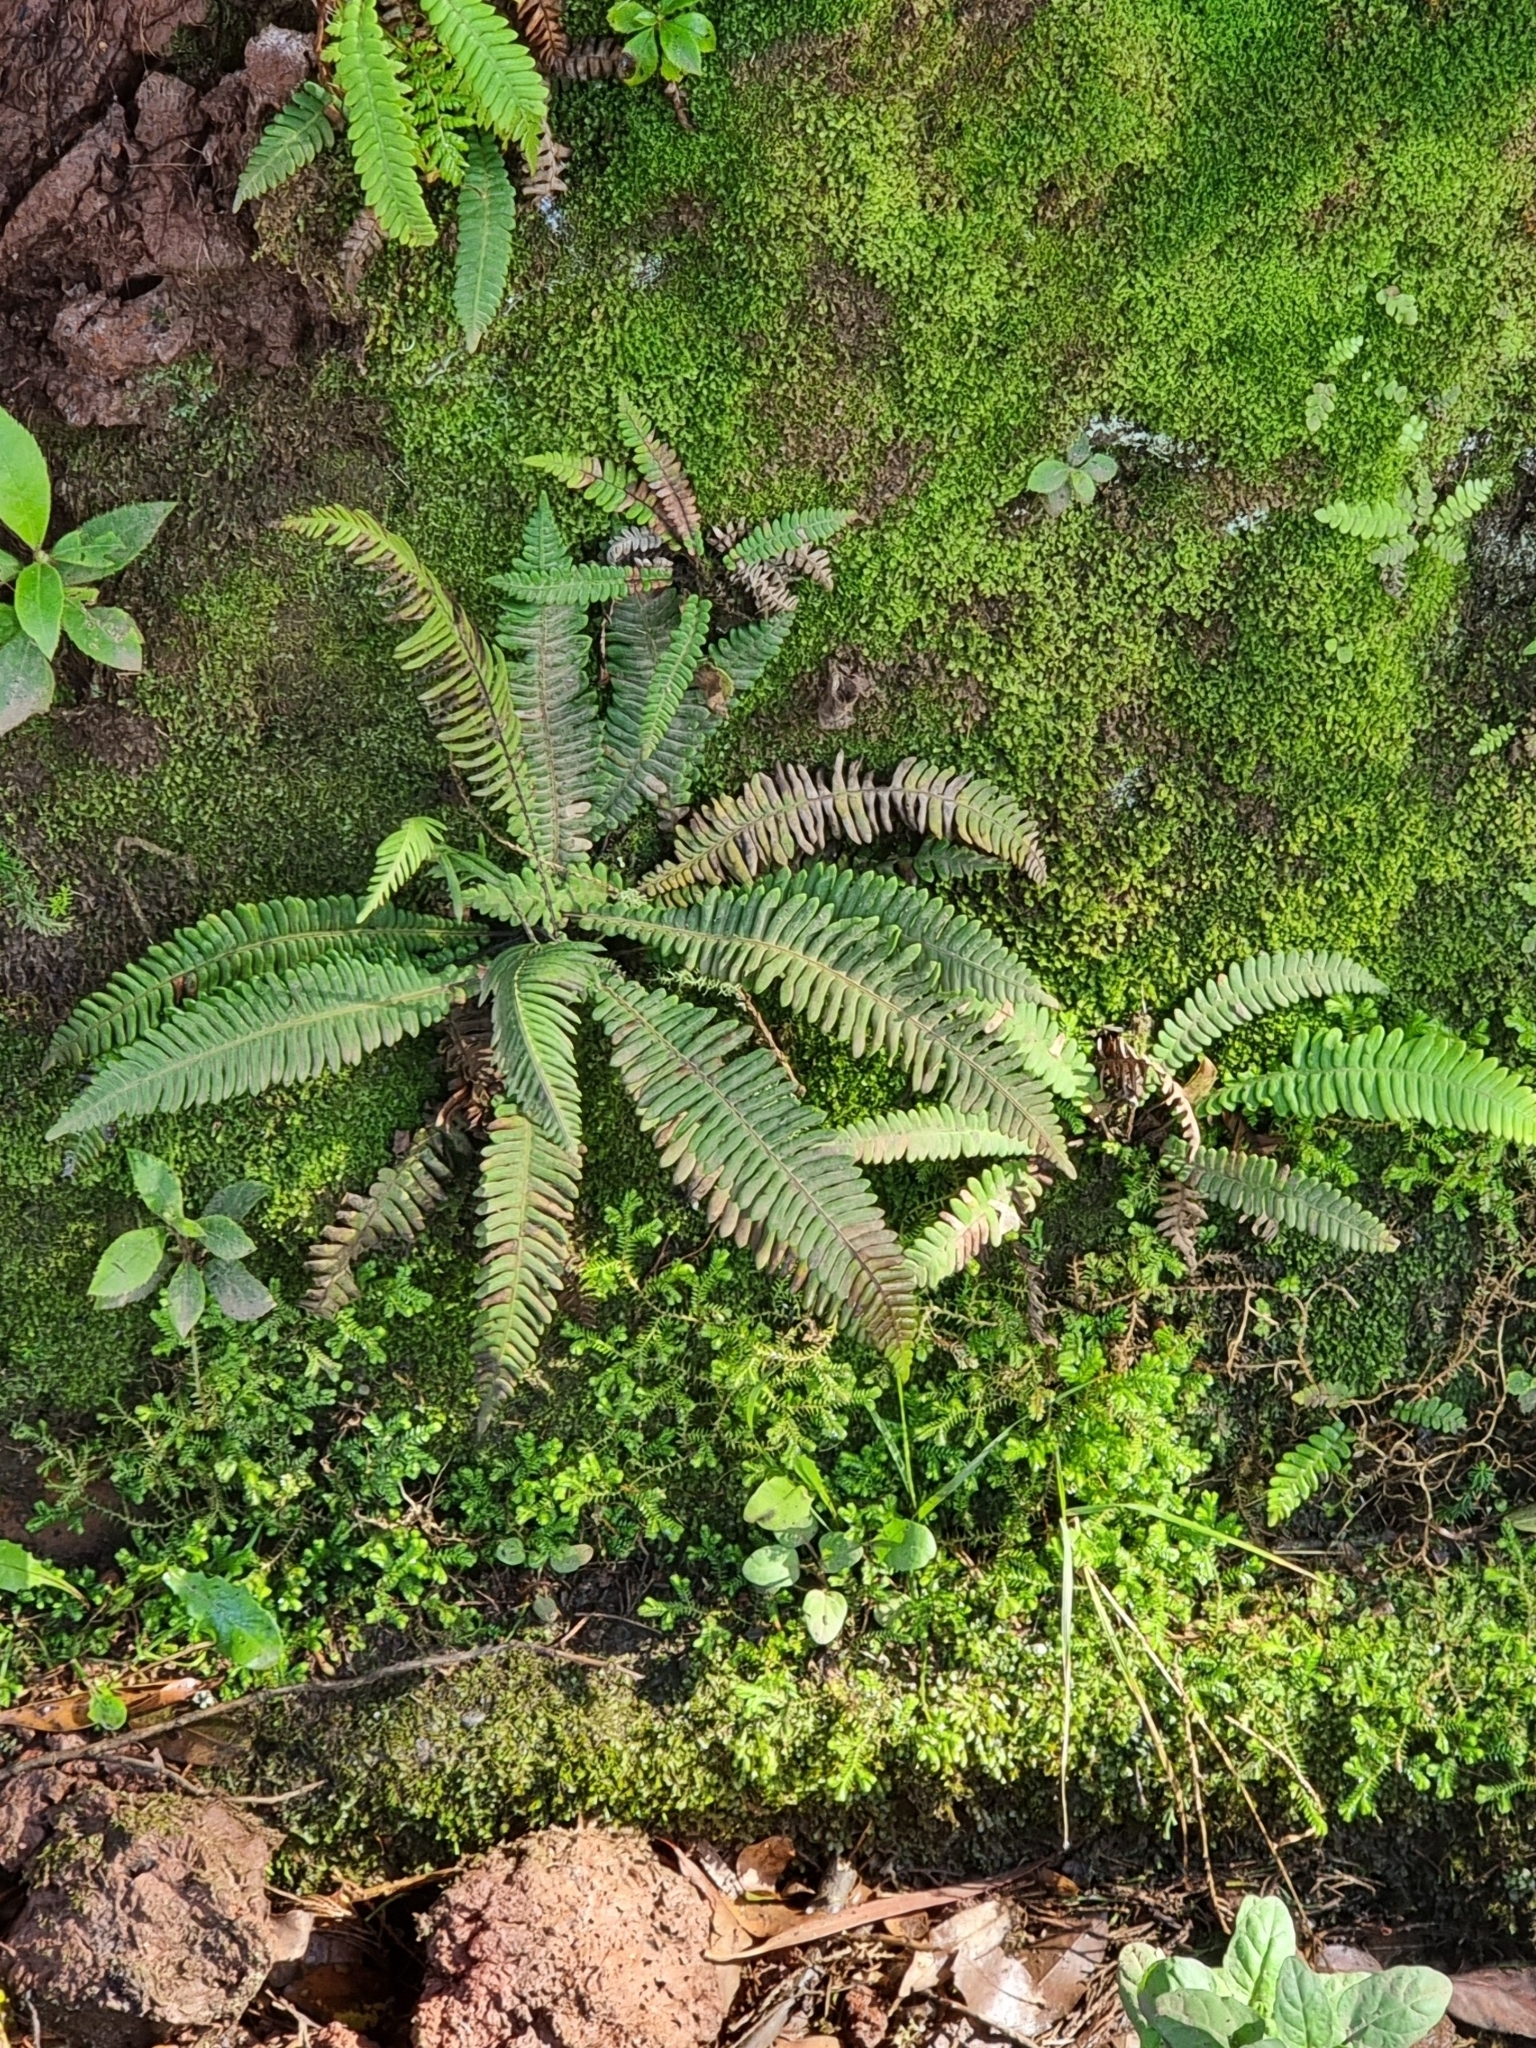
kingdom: Plantae
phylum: Tracheophyta
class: Polypodiopsida
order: Polypodiales
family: Blechnaceae
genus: Struthiopteris
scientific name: Struthiopteris spicant
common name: Deer fern
